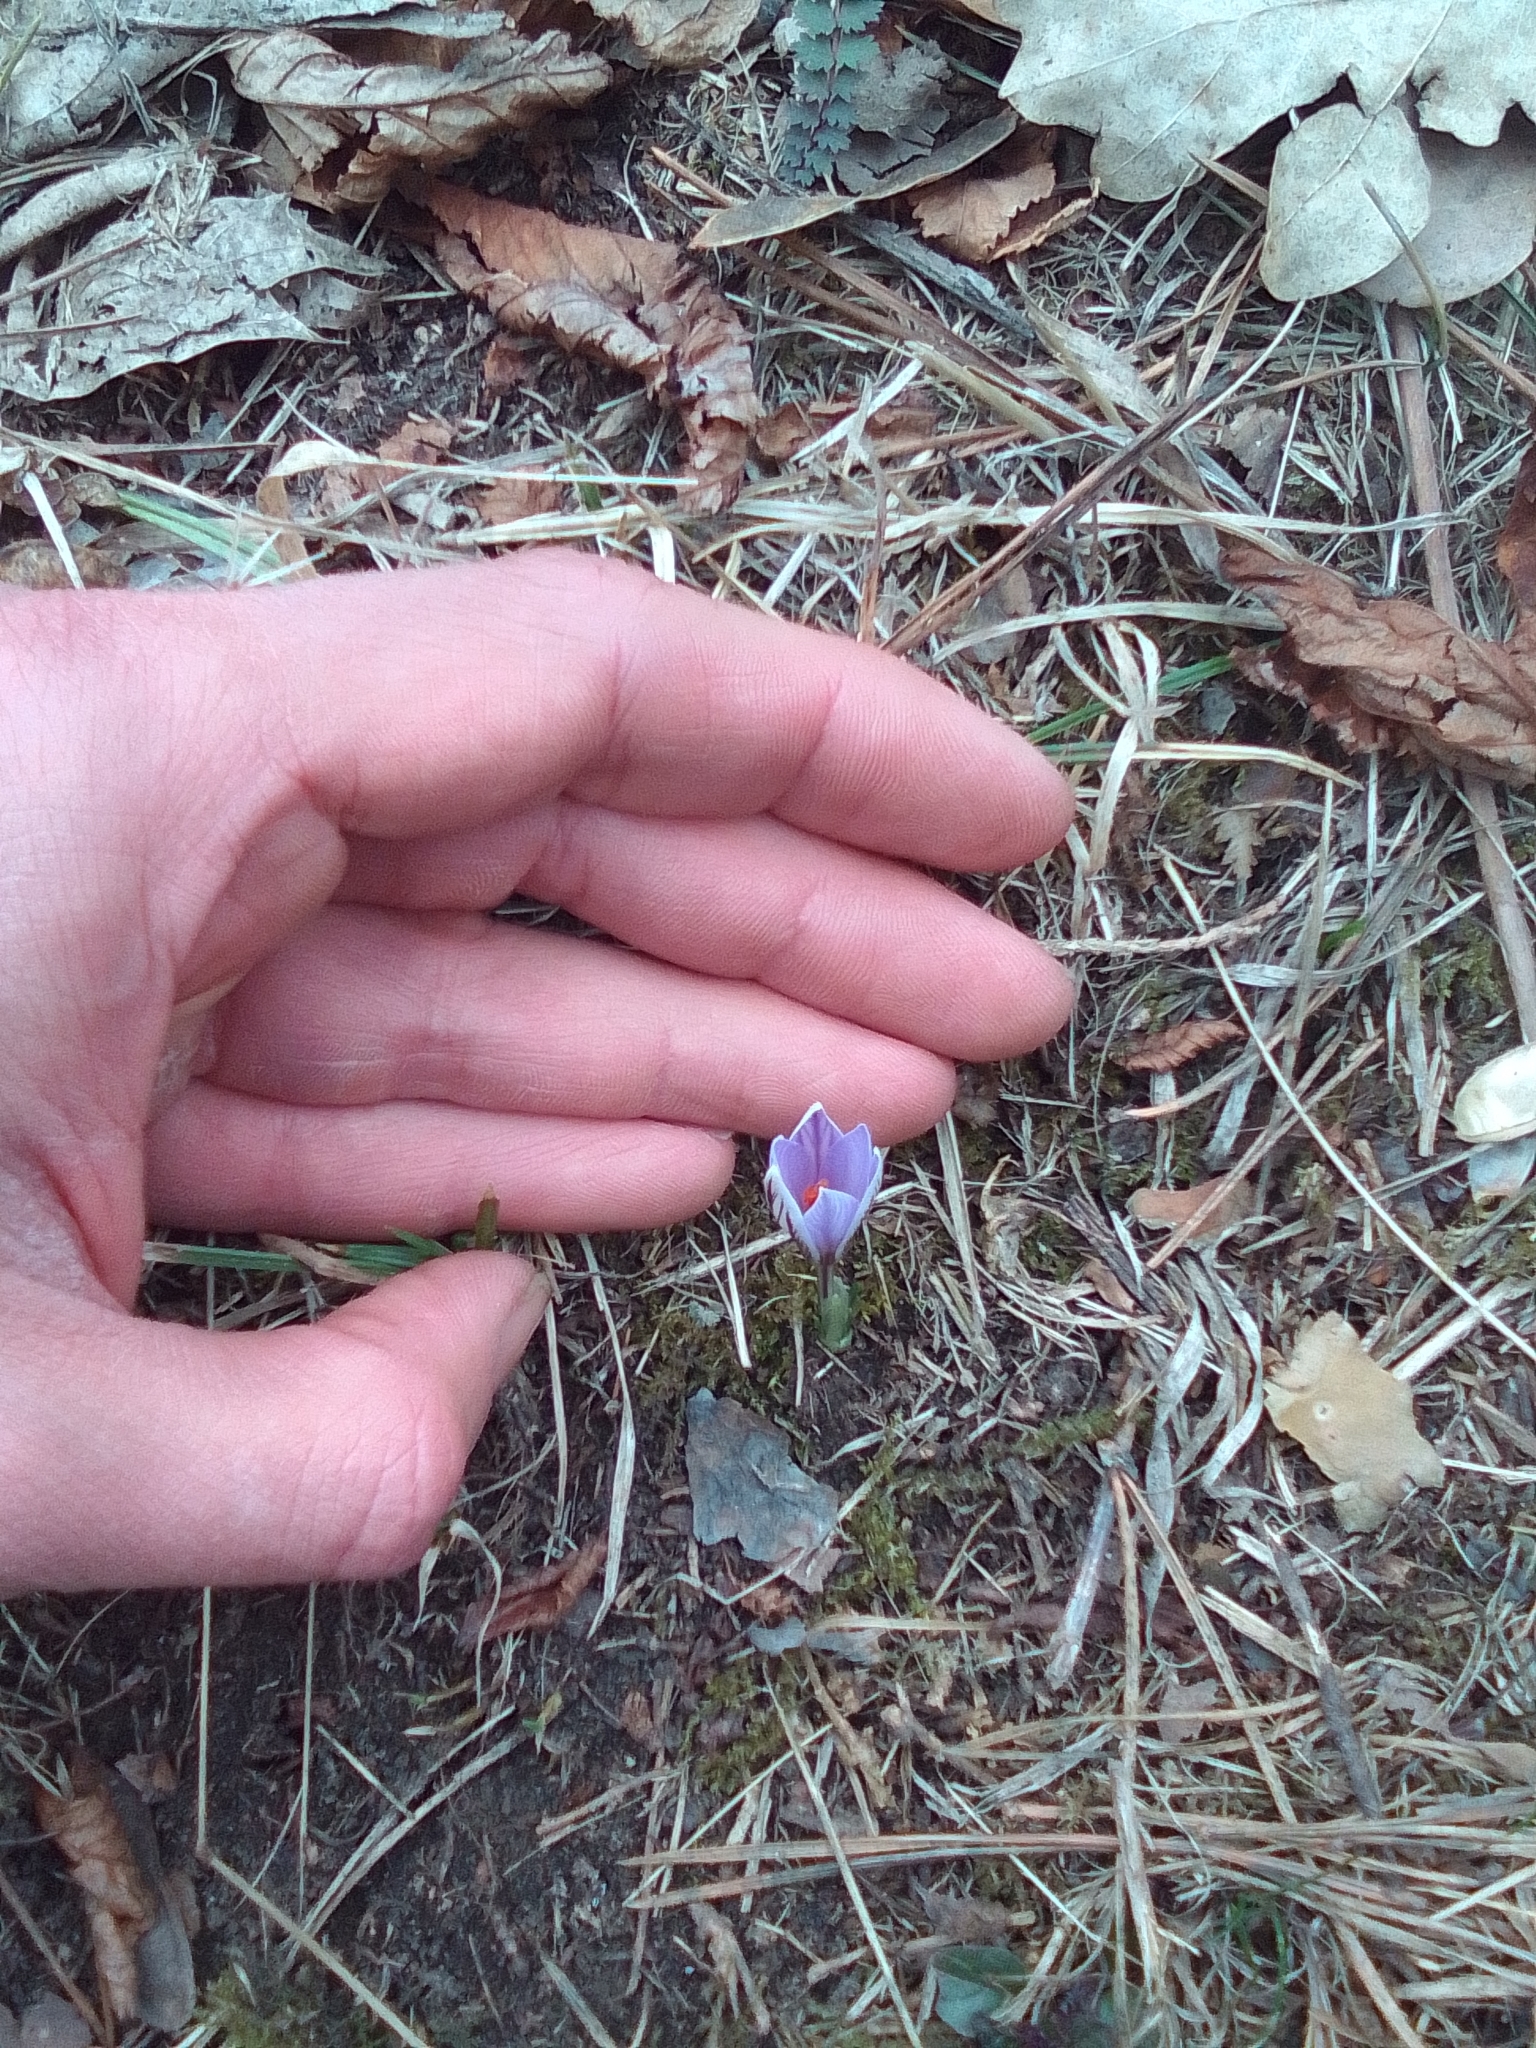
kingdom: Plantae
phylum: Tracheophyta
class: Liliopsida
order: Asparagales
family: Iridaceae
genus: Crocus
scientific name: Crocus reticulatus
